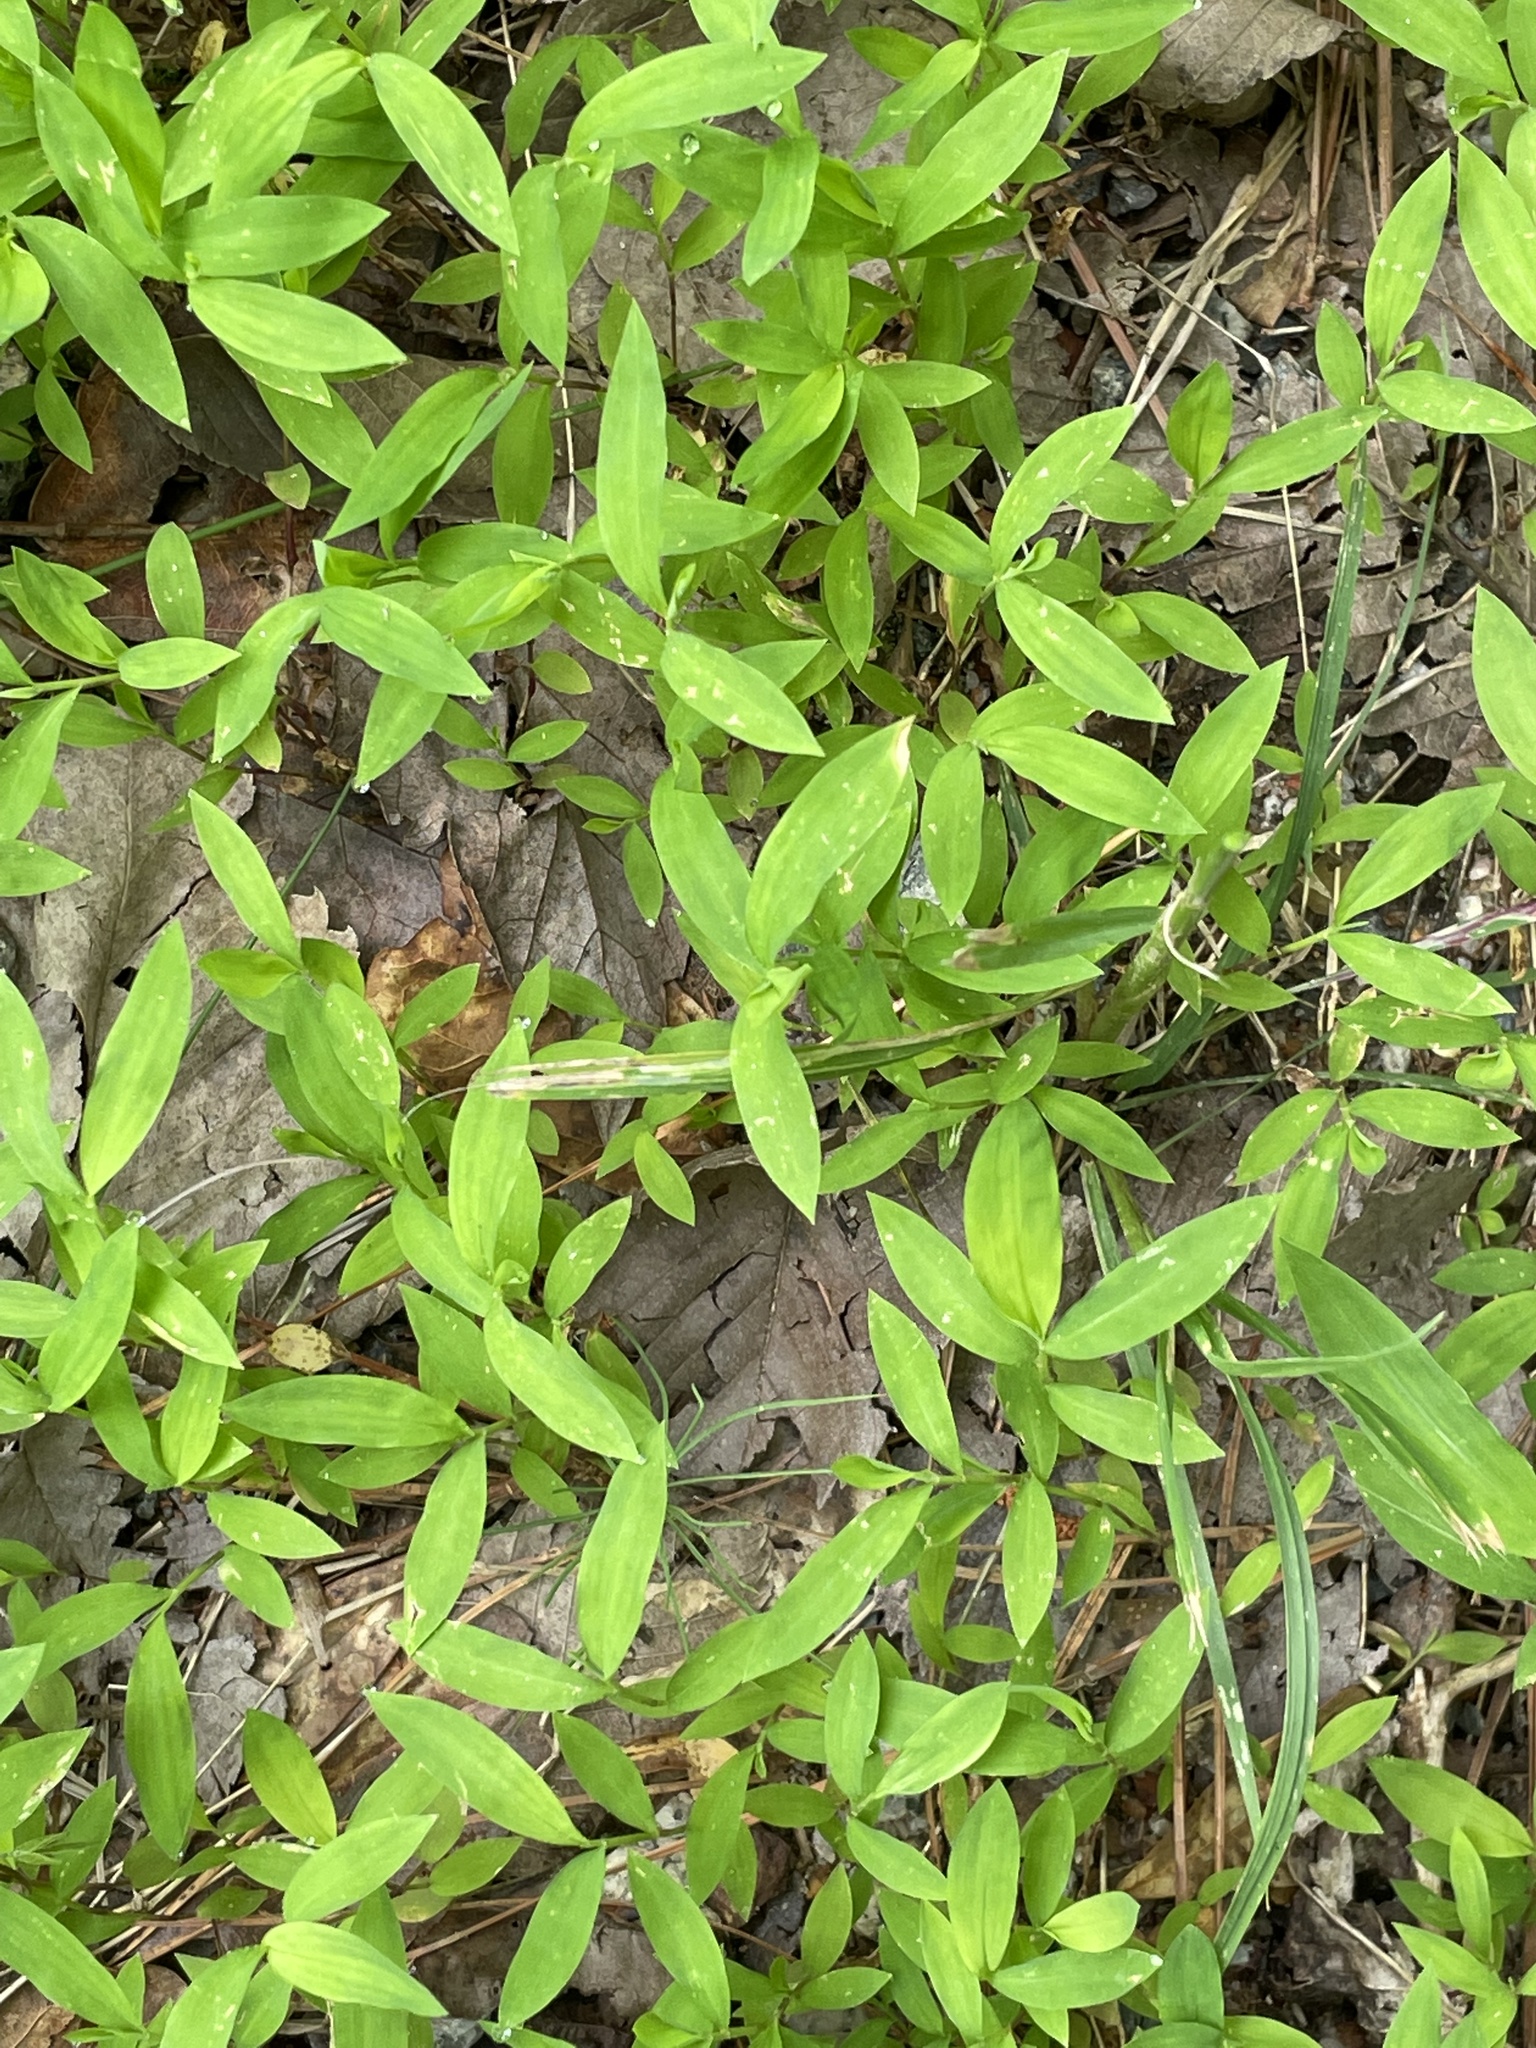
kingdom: Plantae
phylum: Tracheophyta
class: Liliopsida
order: Poales
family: Poaceae
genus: Microstegium
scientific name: Microstegium vimineum
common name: Japanese stiltgrass
